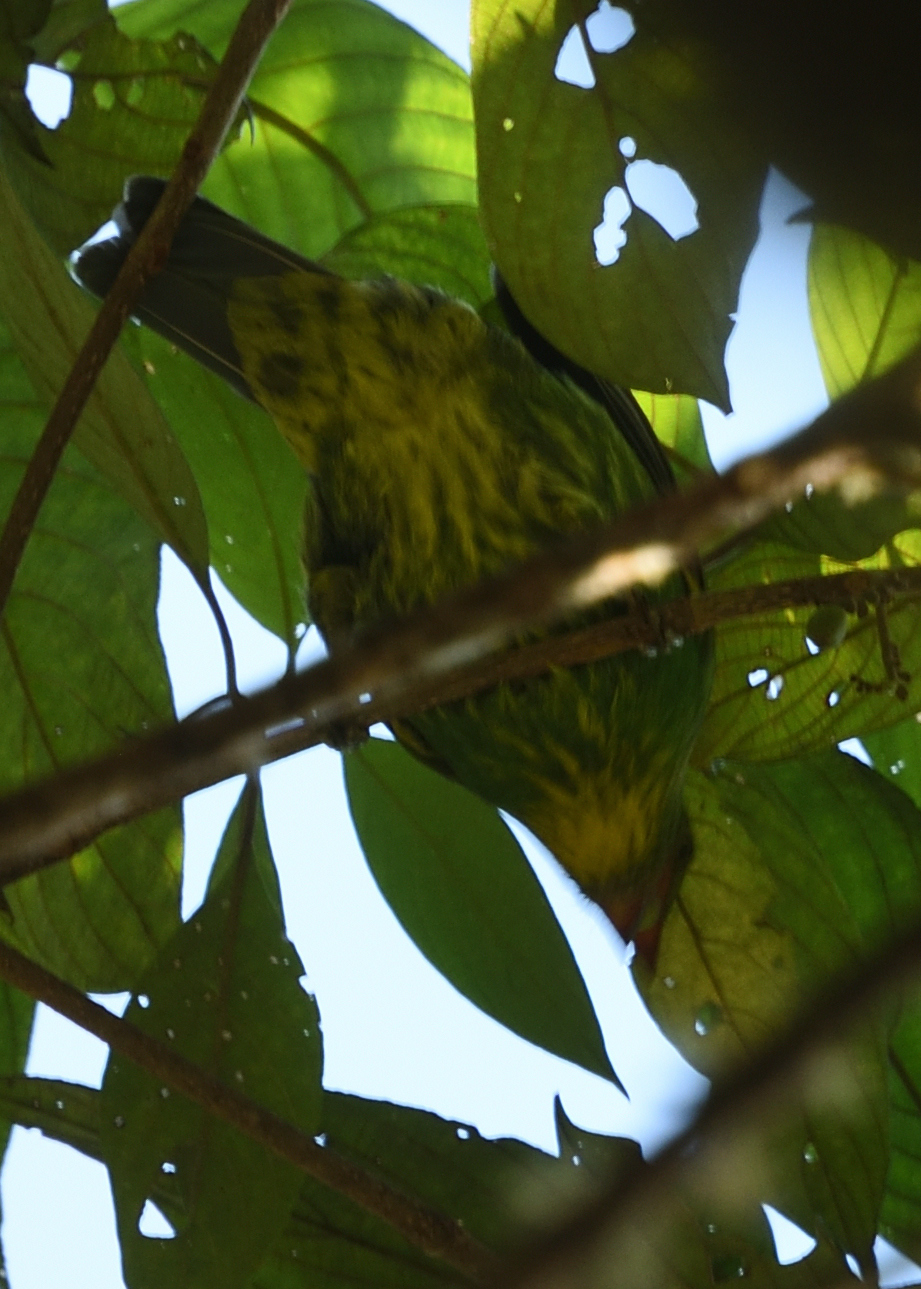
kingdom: Animalia
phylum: Chordata
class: Aves
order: Passeriformes
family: Cotingidae
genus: Pipreola
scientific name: Pipreola aureopectus
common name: Golden-breasted fruiteater
